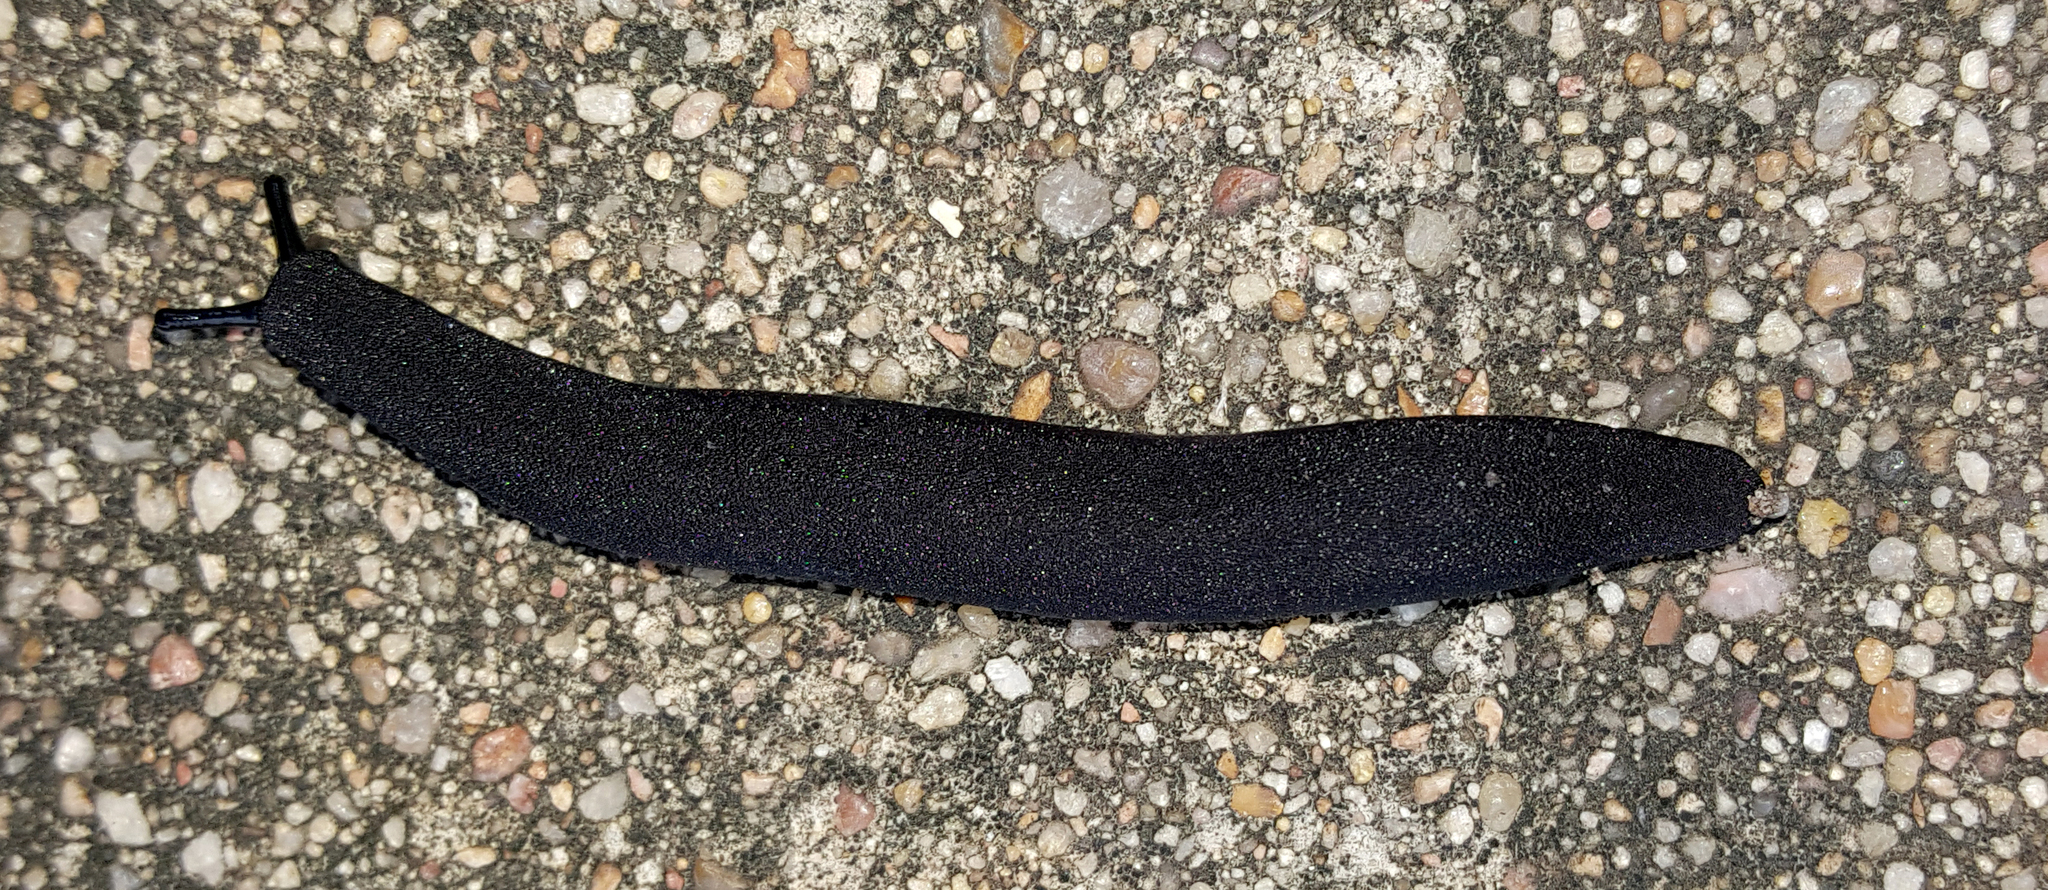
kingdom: Animalia
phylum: Mollusca
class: Gastropoda
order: Systellommatophora
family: Veronicellidae
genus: Belocaulus
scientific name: Belocaulus angustipes
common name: Black velvet leatherleaf slug
